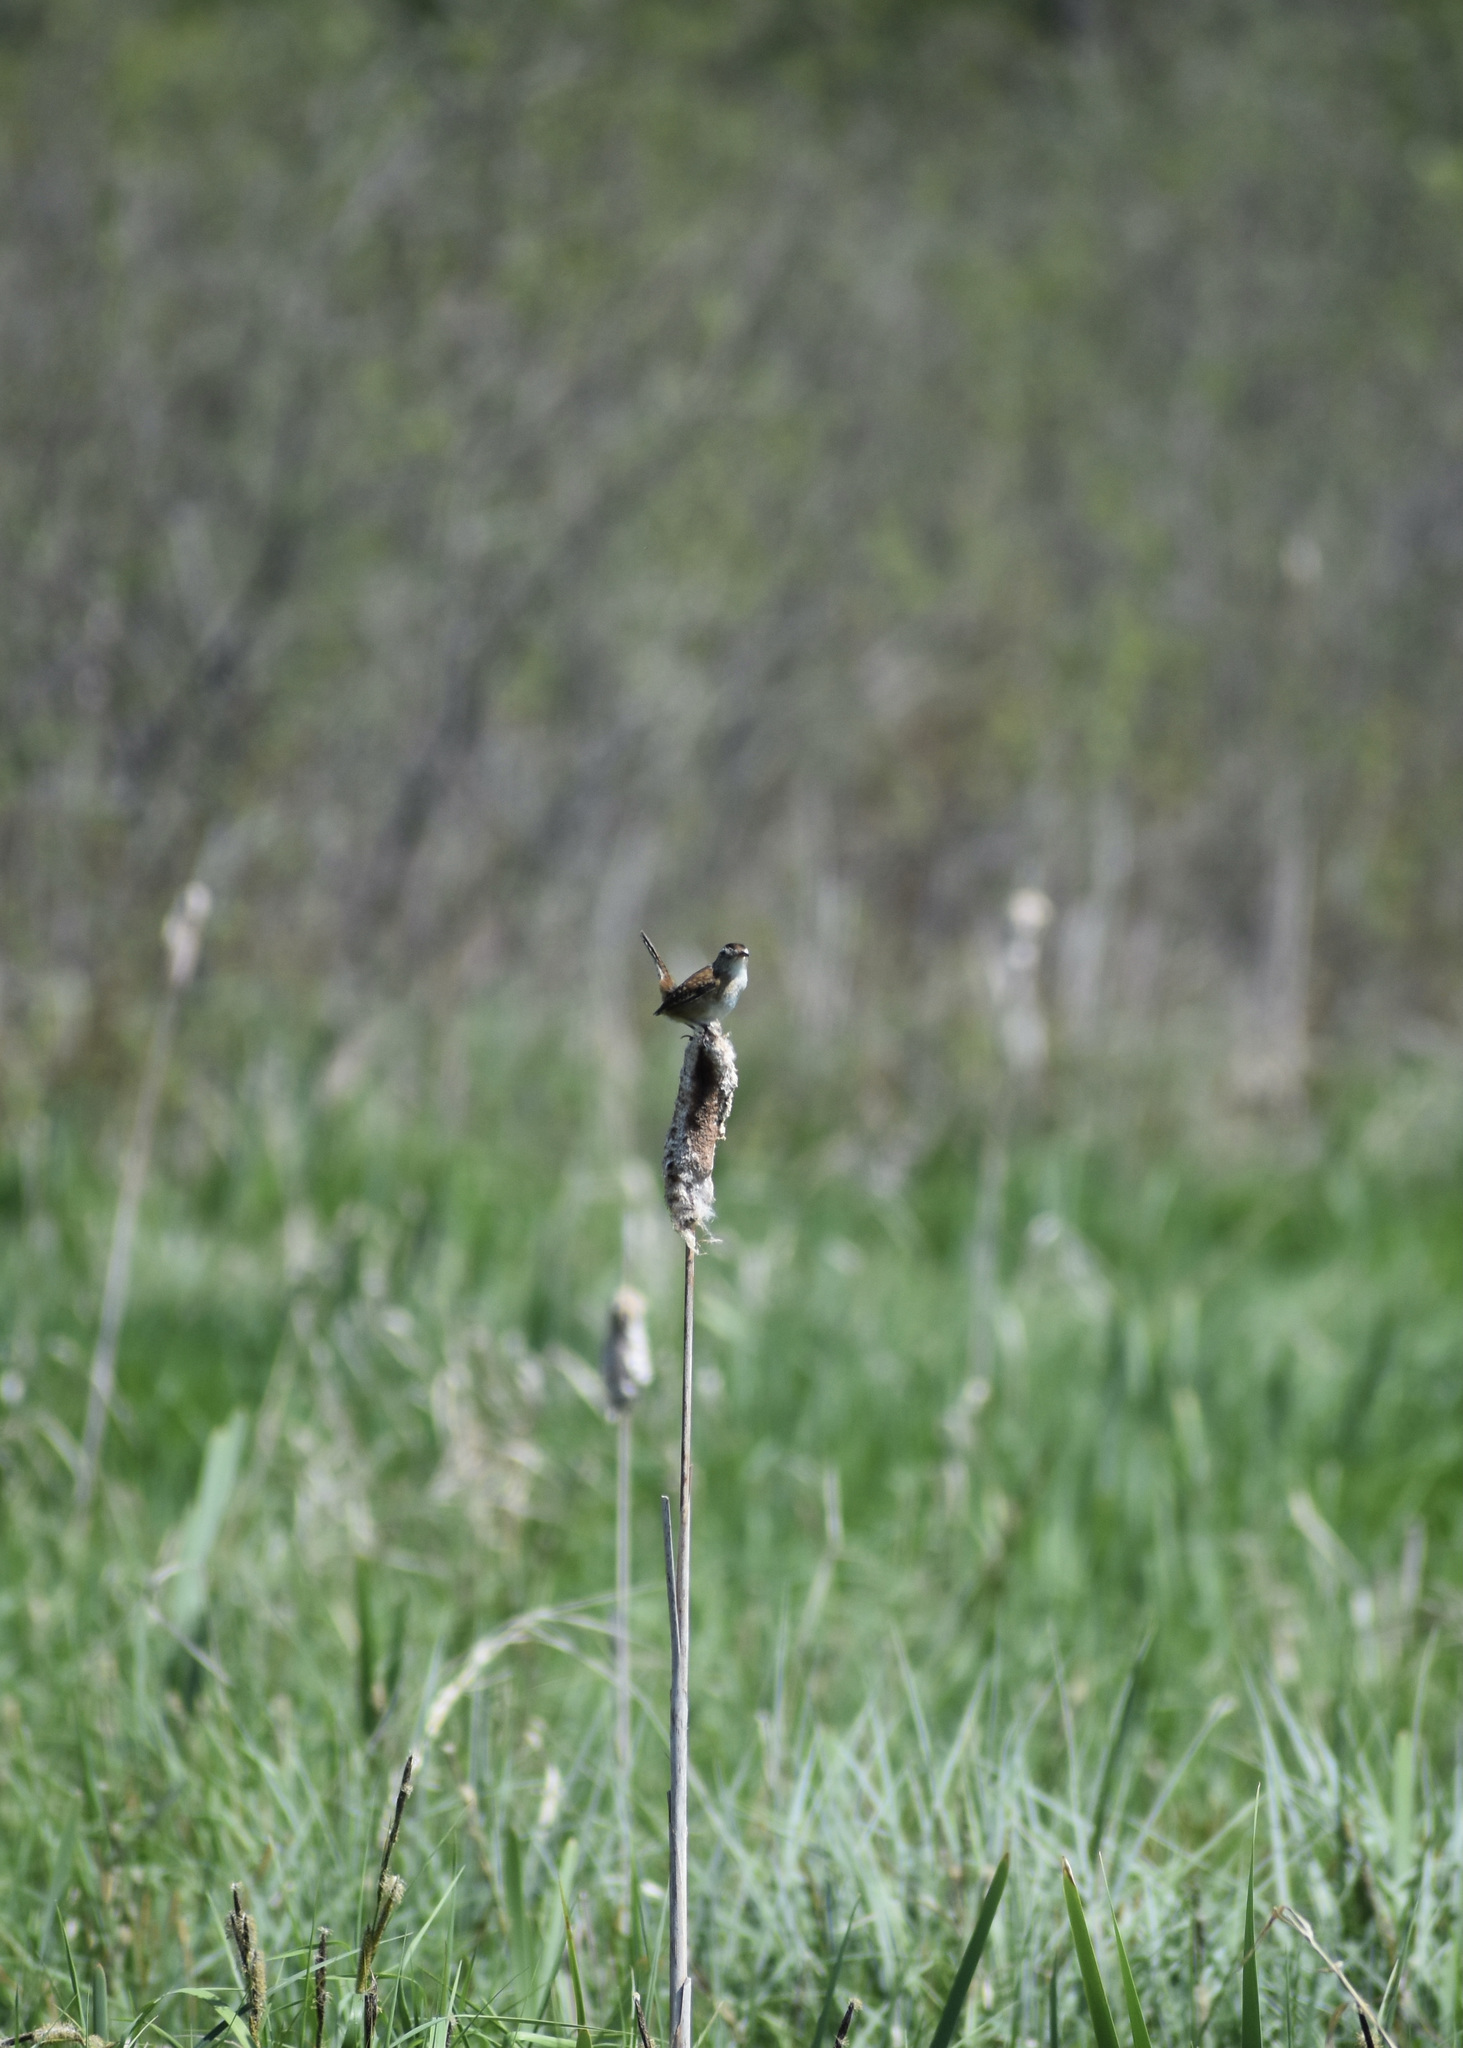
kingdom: Animalia
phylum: Chordata
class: Aves
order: Passeriformes
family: Troglodytidae
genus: Cistothorus
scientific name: Cistothorus palustris
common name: Marsh wren
